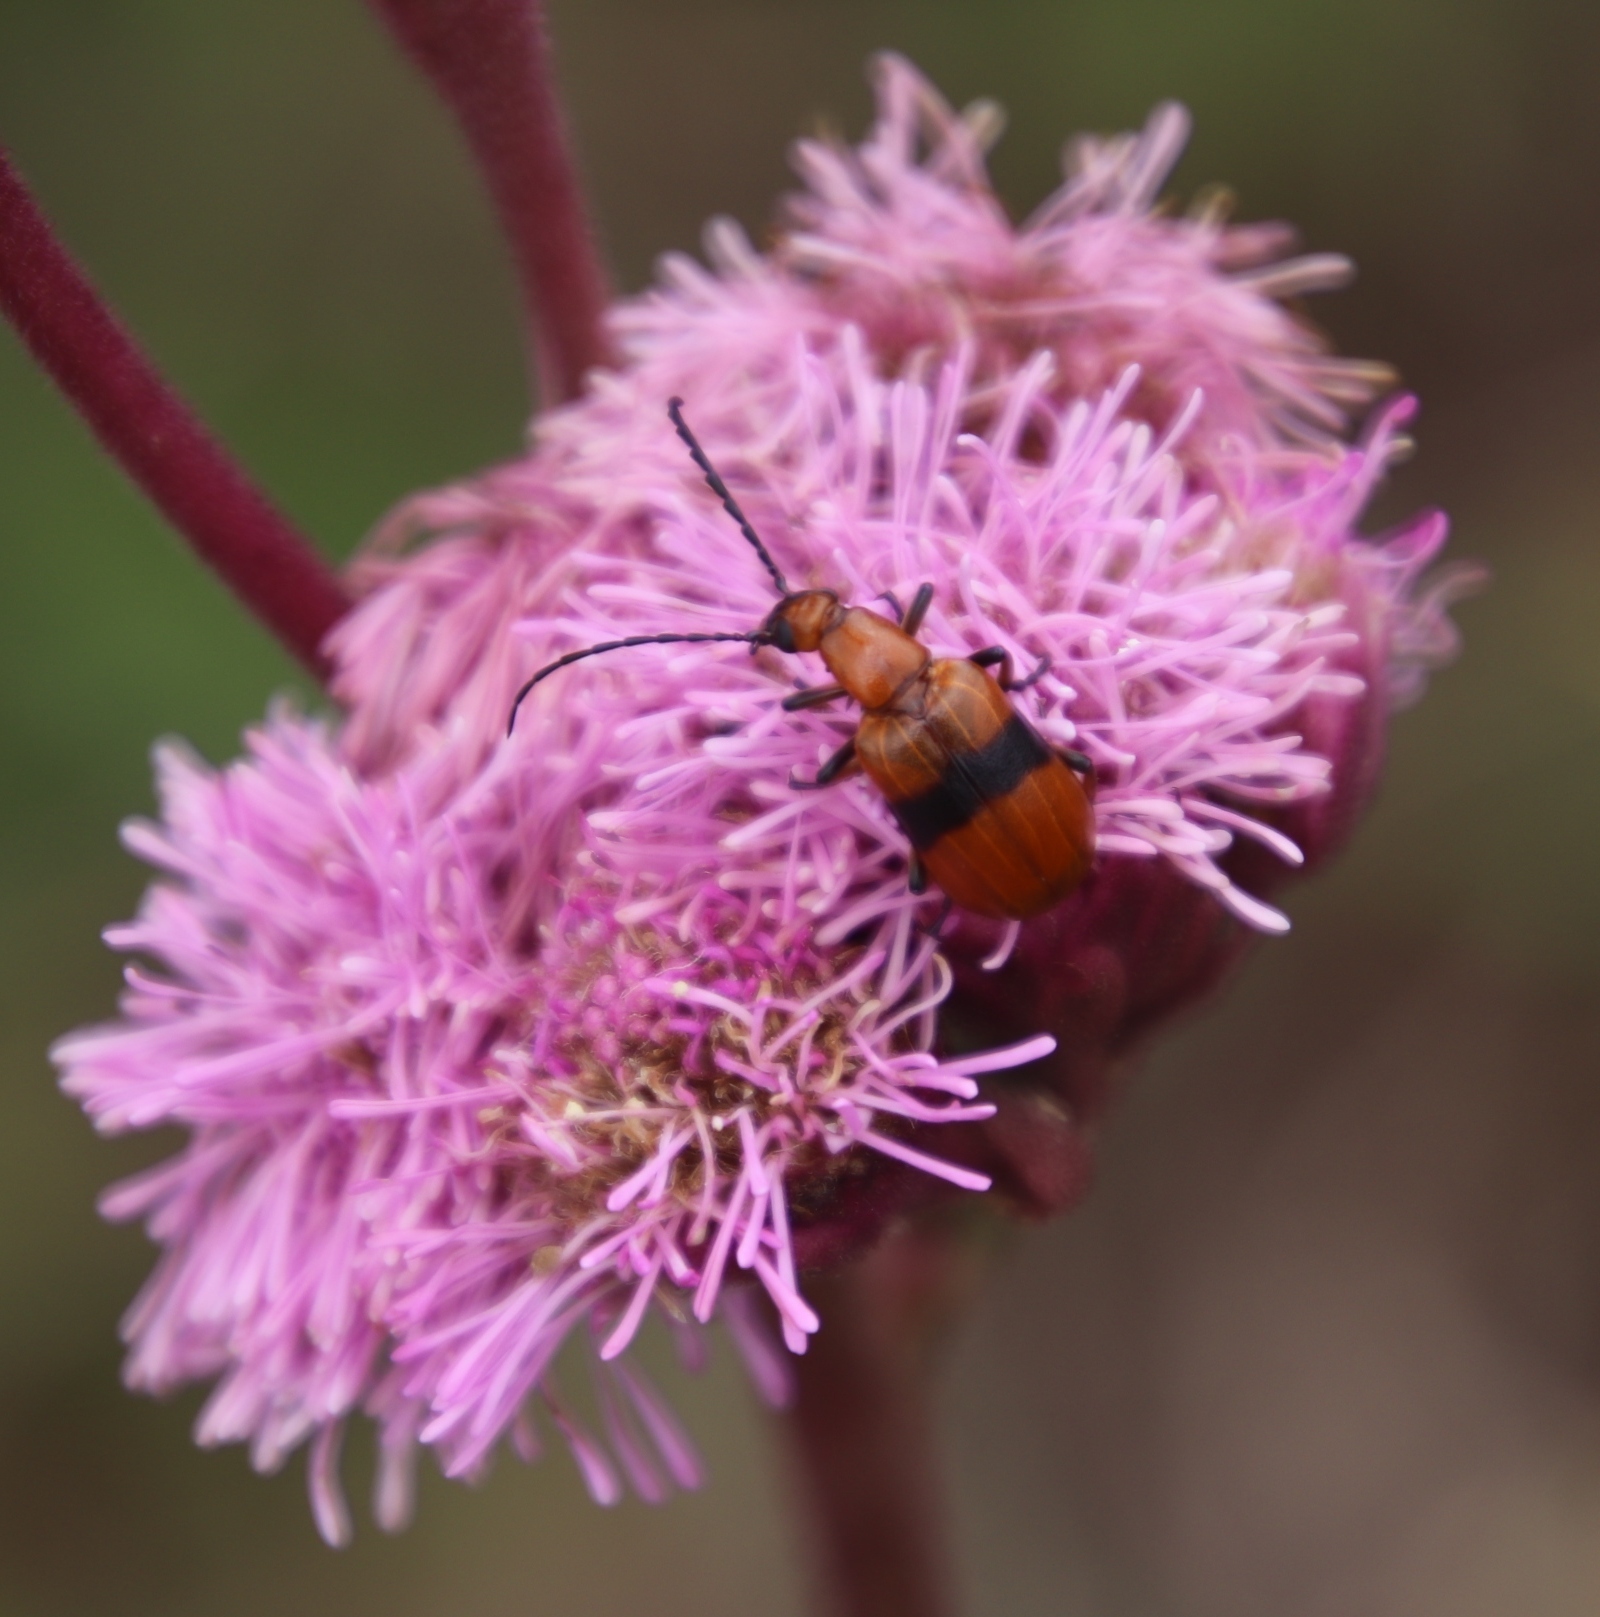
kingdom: Plantae
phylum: Tracheophyta
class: Magnoliopsida
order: Asterales
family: Asteraceae
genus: Campuloclinium
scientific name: Campuloclinium macrocephalum
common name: Pompomweed
